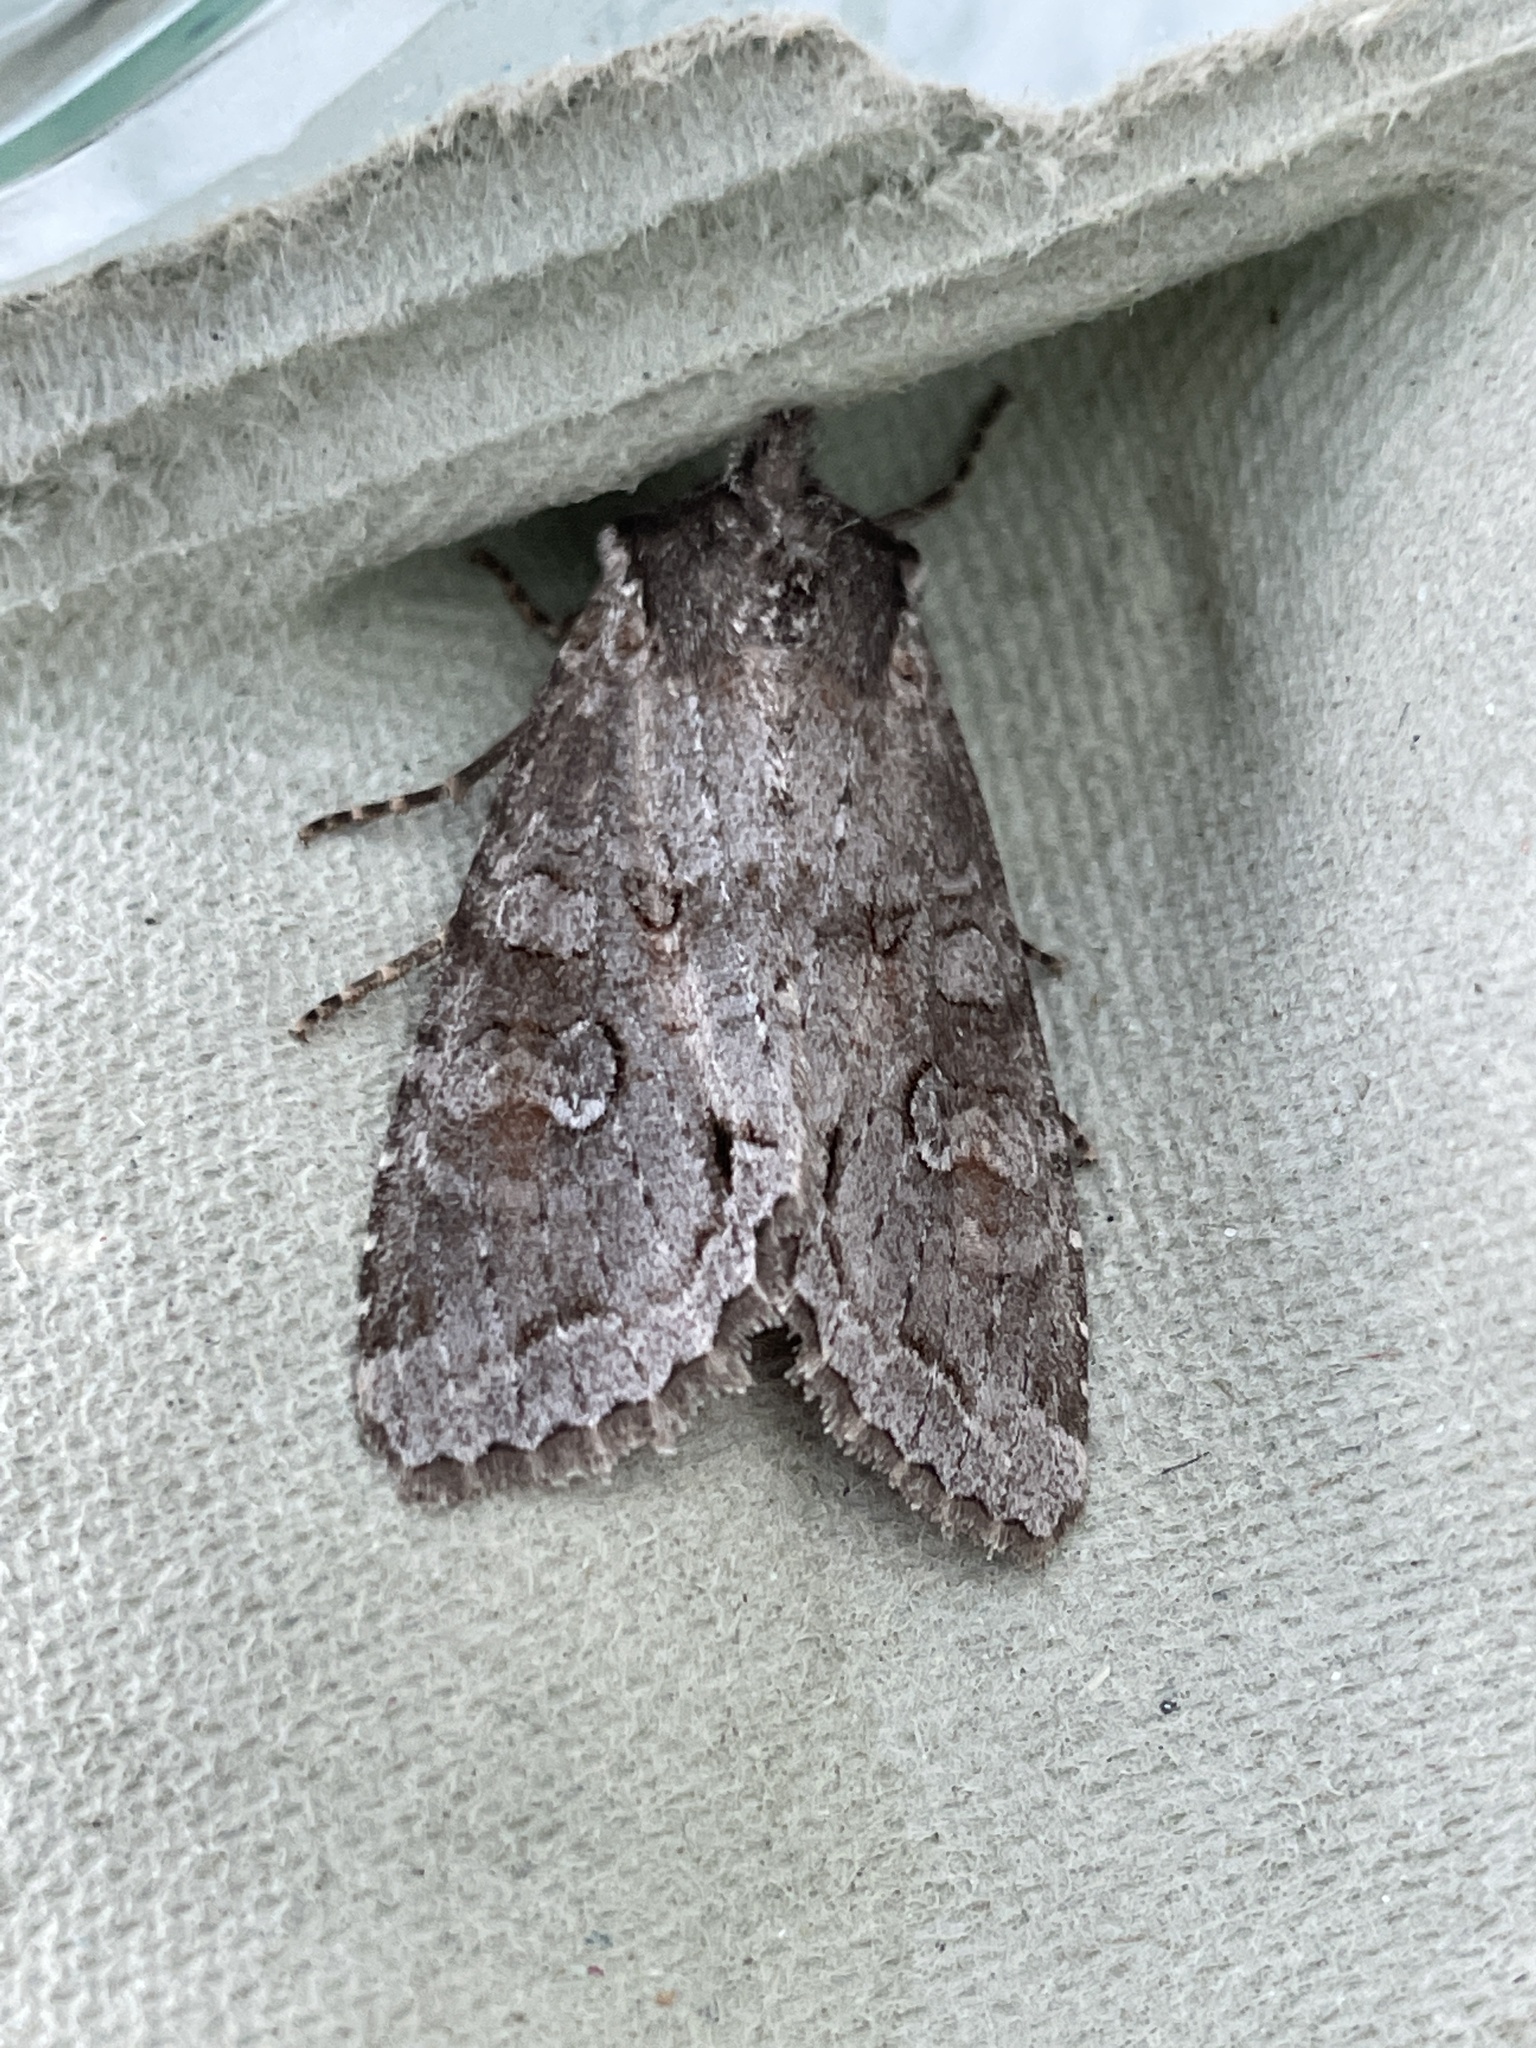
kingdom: Animalia
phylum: Arthropoda
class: Insecta
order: Lepidoptera
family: Noctuidae
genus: Polia
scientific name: Polia bombycina
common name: Pale shining brown
